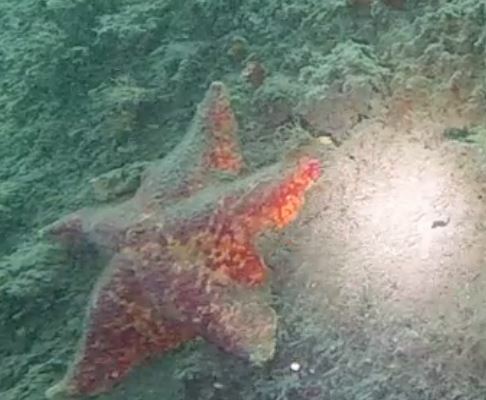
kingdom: Animalia
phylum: Echinodermata
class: Asteroidea
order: Valvatida
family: Asterinidae
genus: Patiria
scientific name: Patiria miniata
